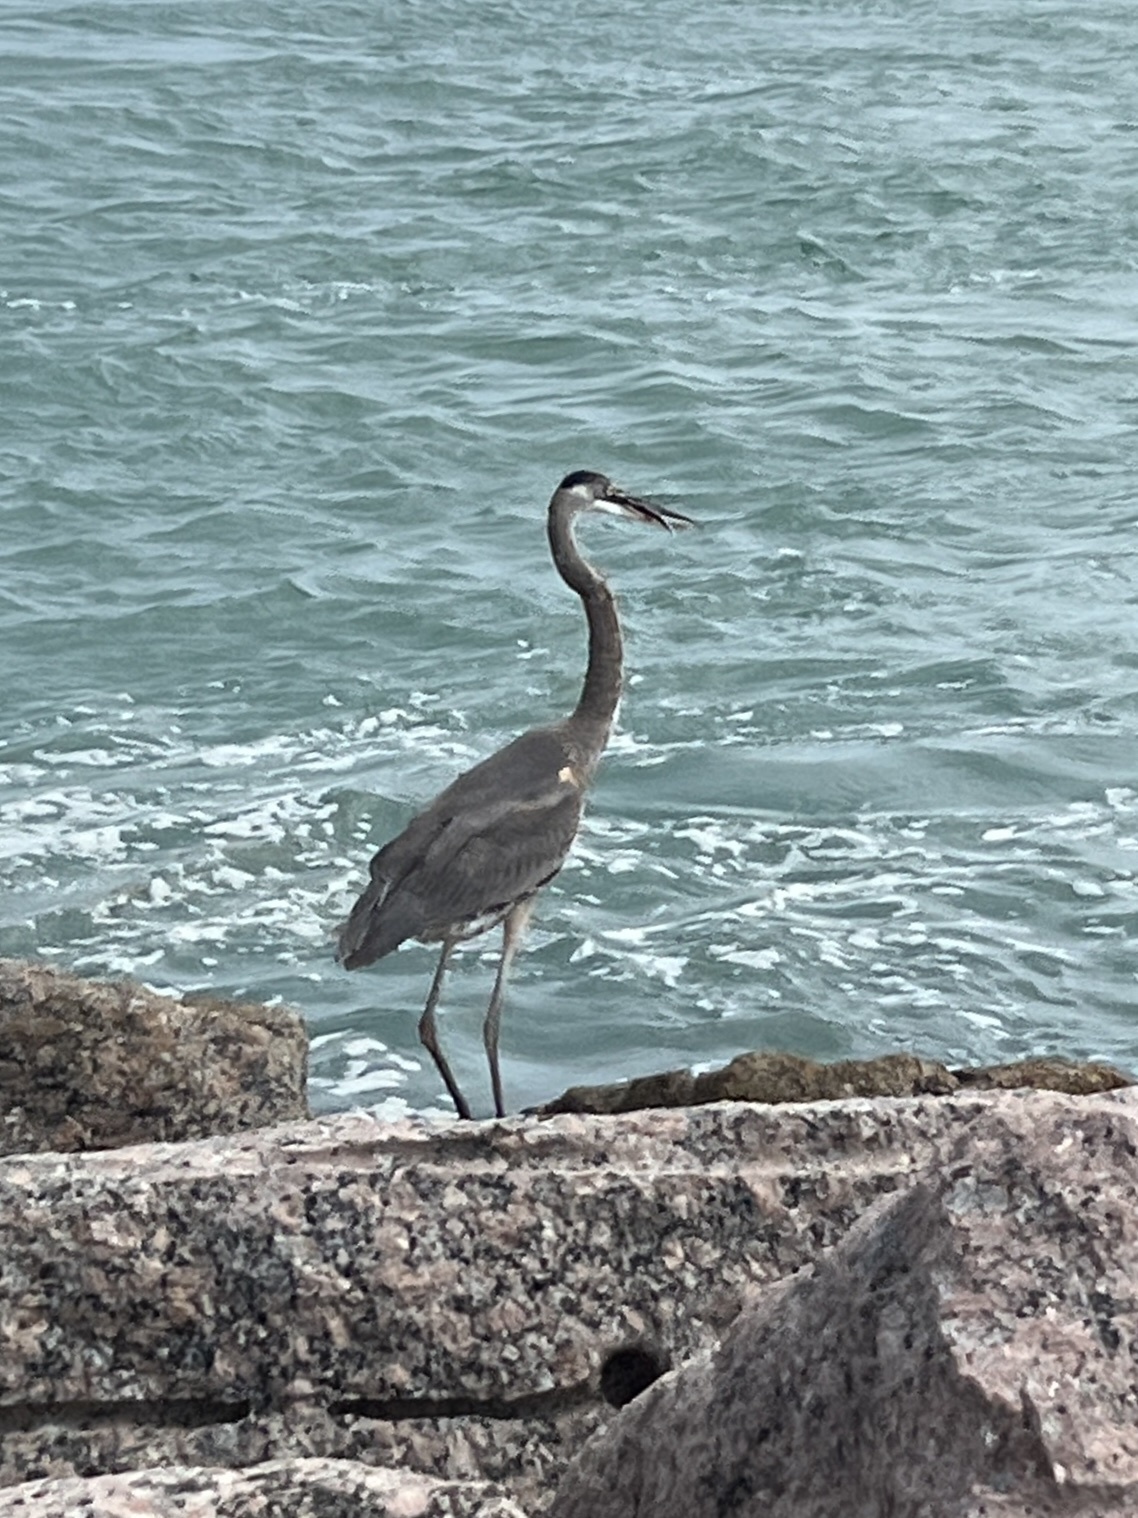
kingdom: Animalia
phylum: Chordata
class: Aves
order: Pelecaniformes
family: Ardeidae
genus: Ardea
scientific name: Ardea herodias
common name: Great blue heron
